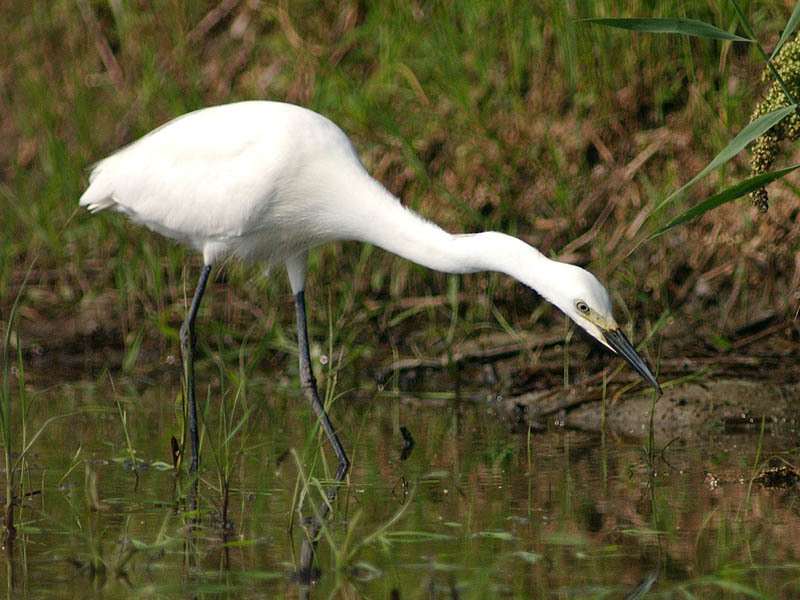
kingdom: Animalia
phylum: Chordata
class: Aves
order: Pelecaniformes
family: Ardeidae
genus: Egretta
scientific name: Egretta intermedia
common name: Intermediate egret
